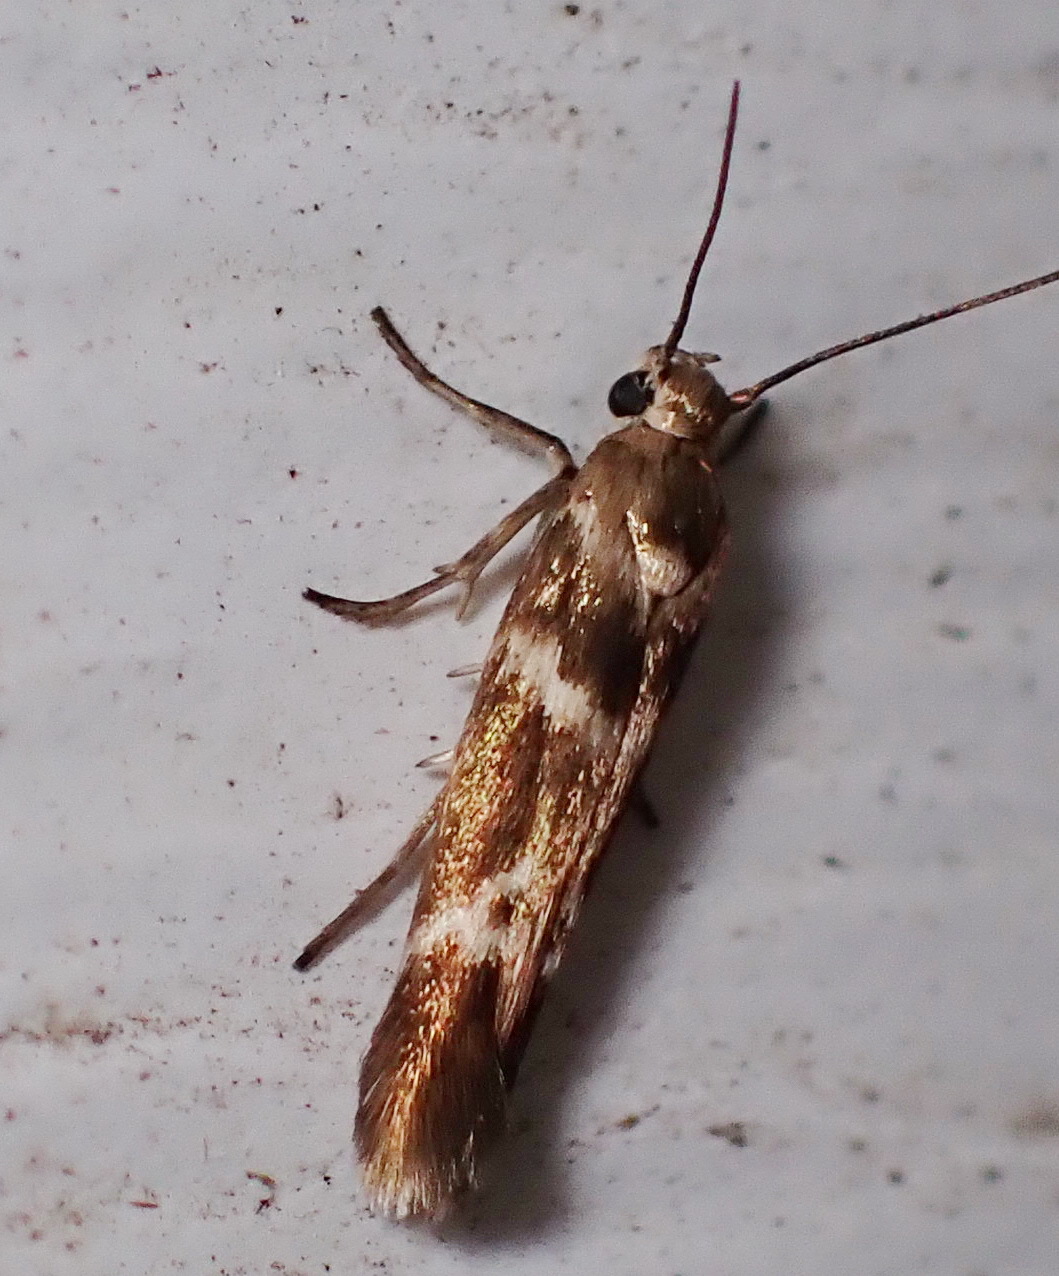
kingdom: Animalia
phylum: Arthropoda
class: Insecta
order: Lepidoptera
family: Scythrididae
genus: Scythris
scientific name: Scythris trivinctella
